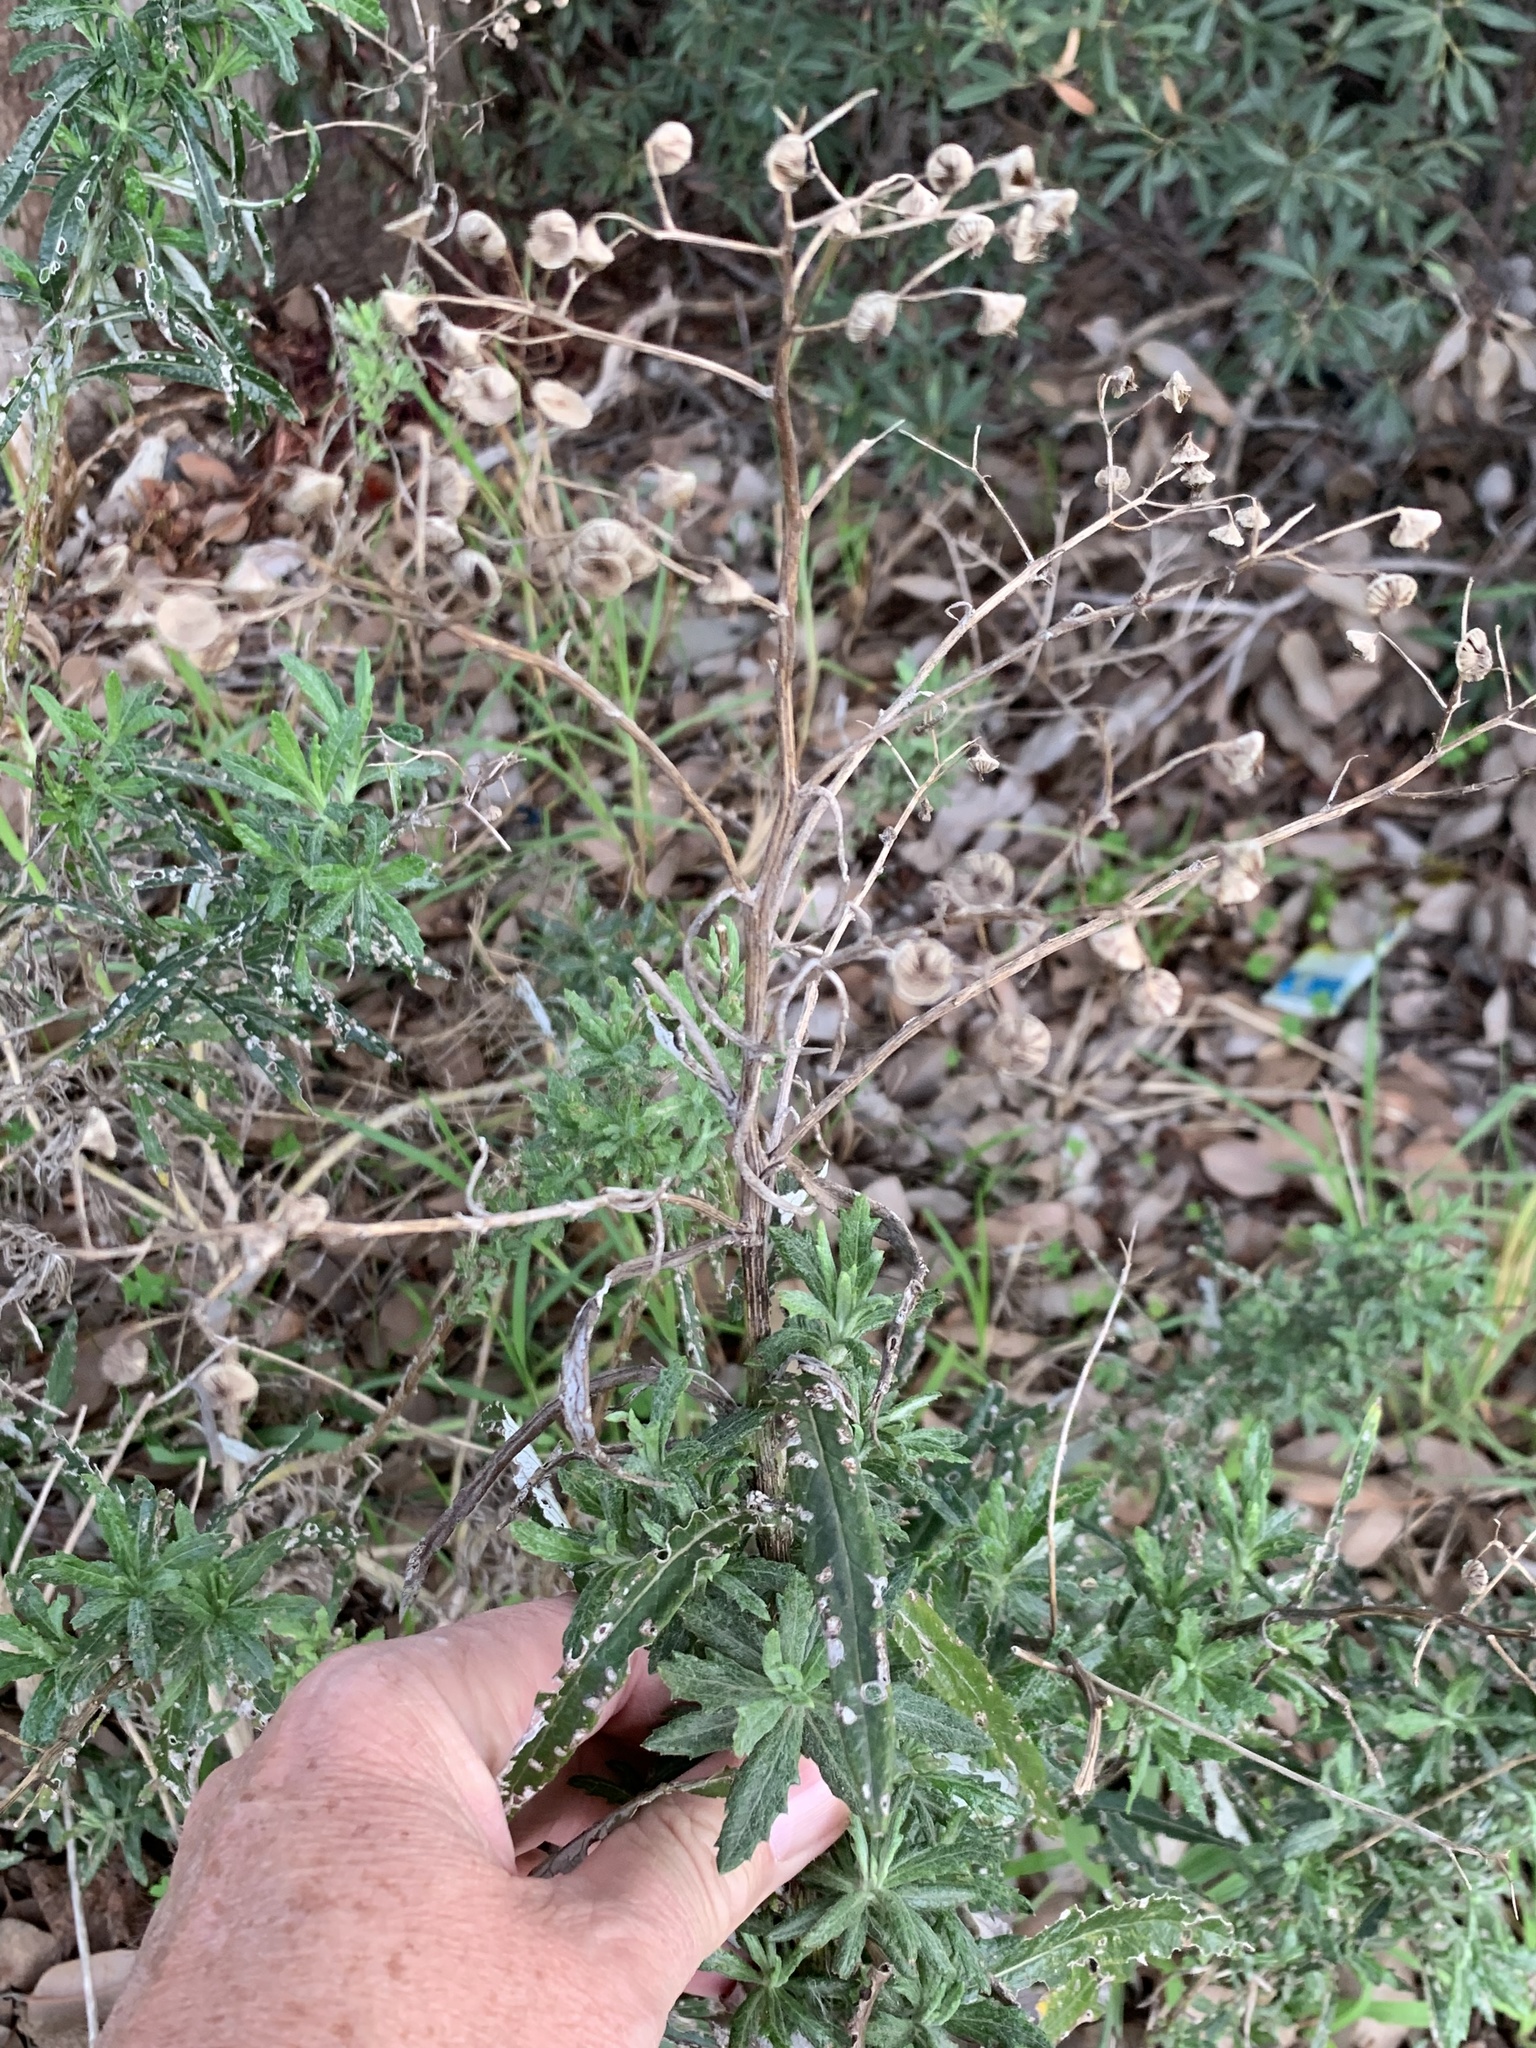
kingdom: Plantae
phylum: Tracheophyta
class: Magnoliopsida
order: Asterales
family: Asteraceae
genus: Senecio
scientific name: Senecio pterophorus
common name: Shoddy ragwort
